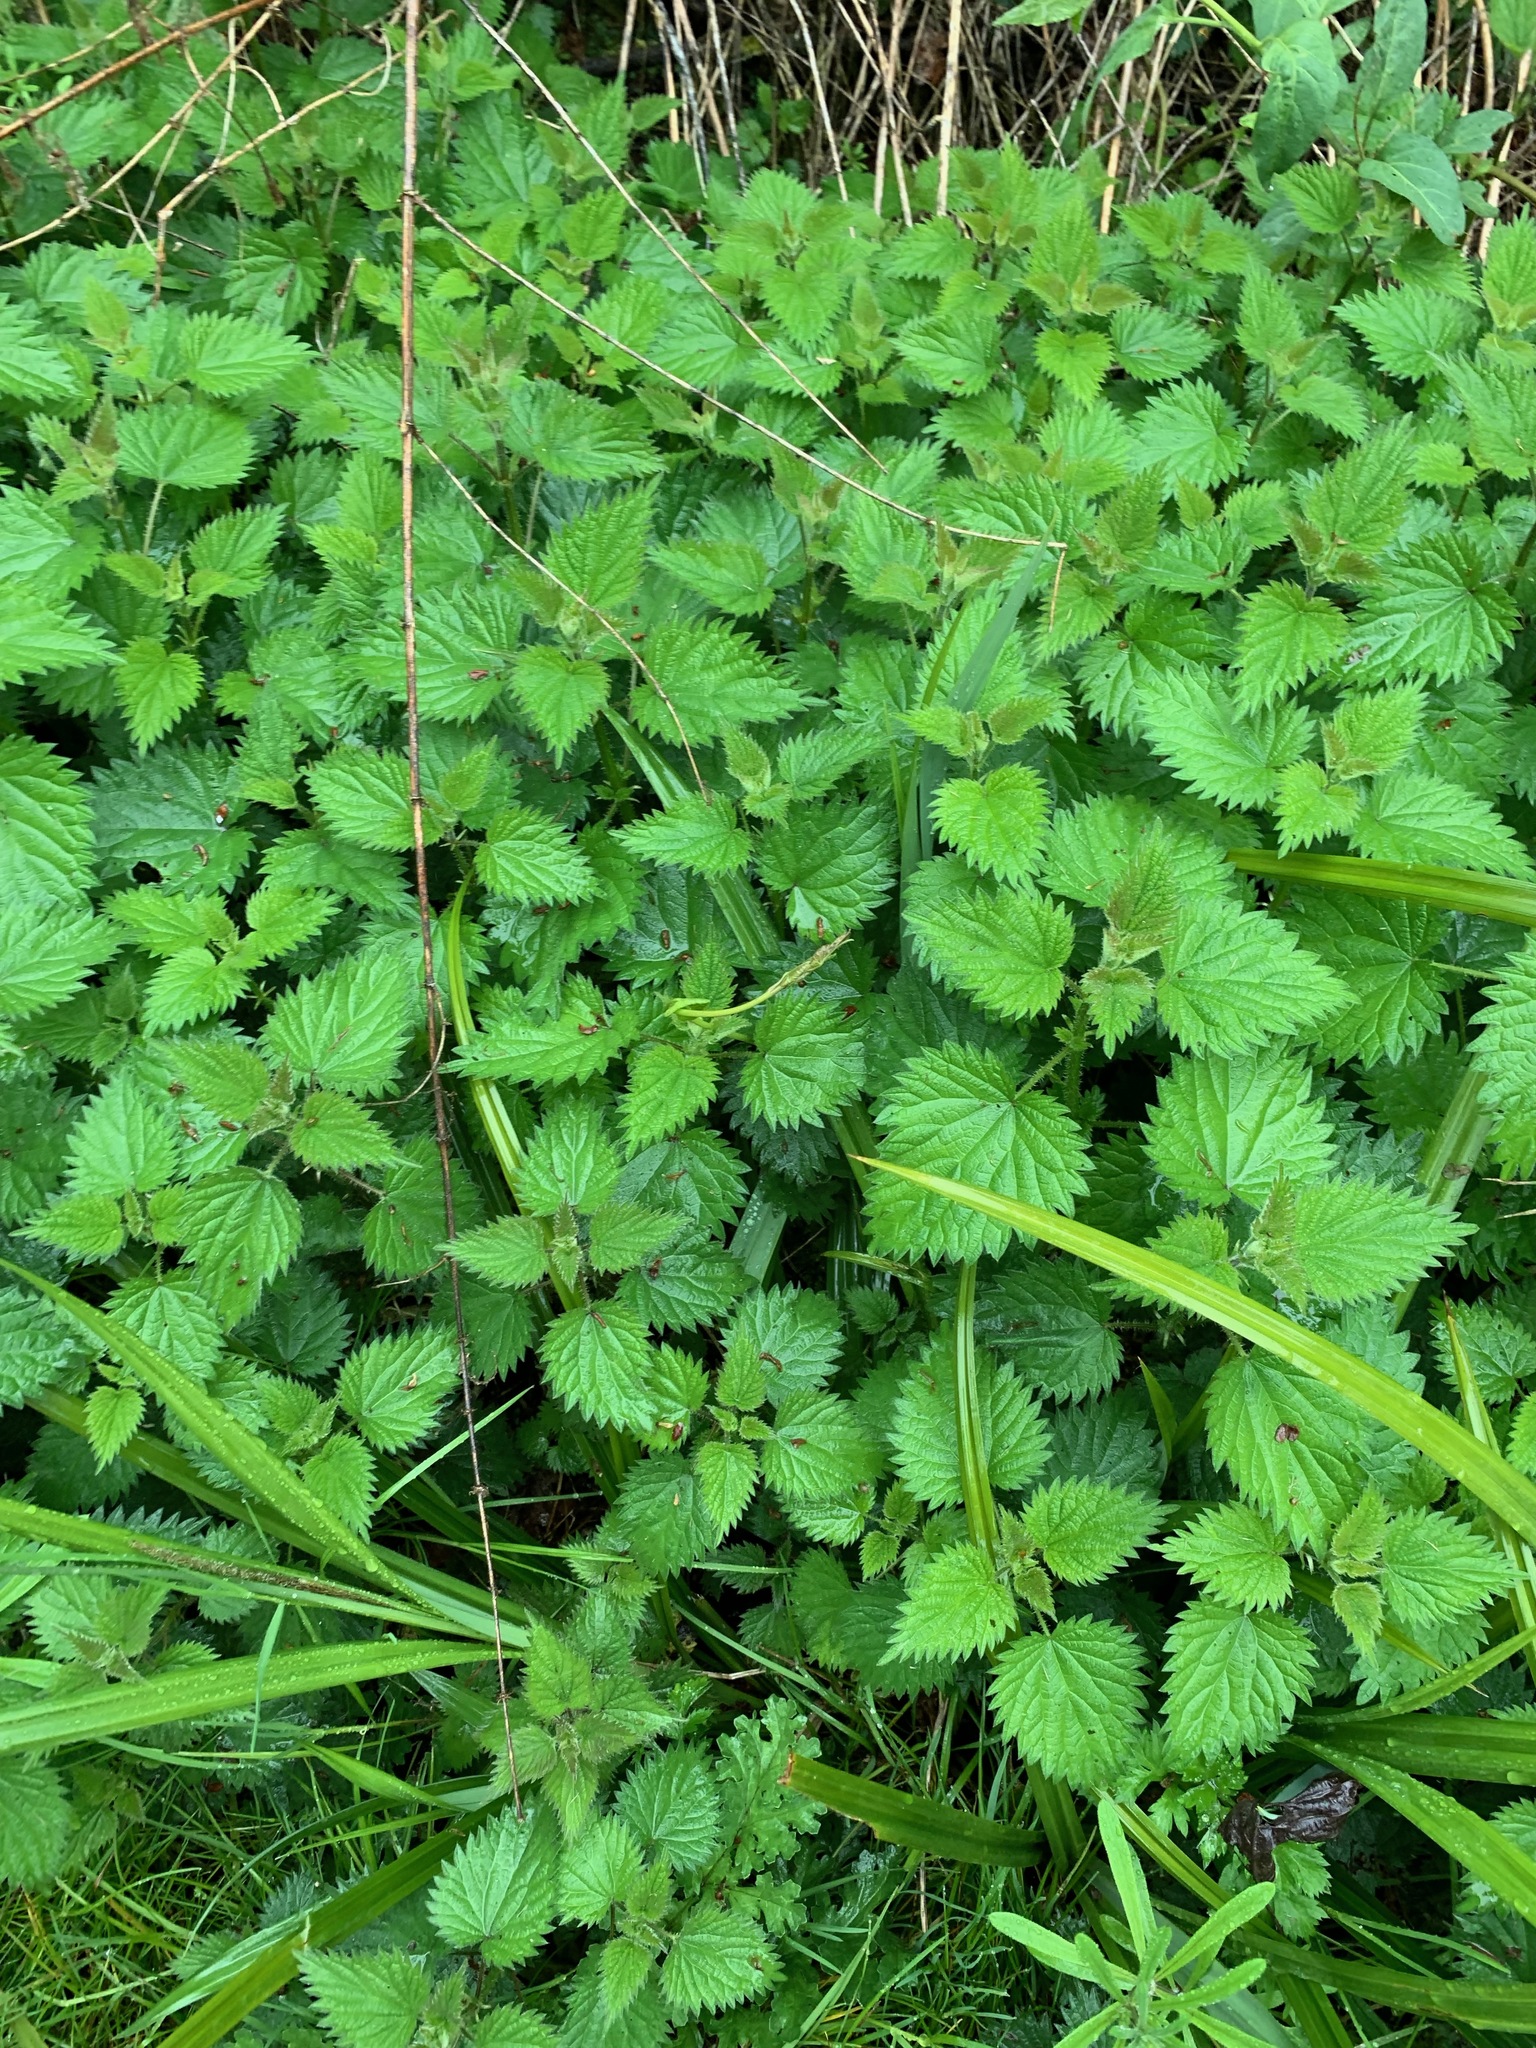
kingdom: Plantae
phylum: Tracheophyta
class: Magnoliopsida
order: Rosales
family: Urticaceae
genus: Urtica
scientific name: Urtica dioica
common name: Common nettle
